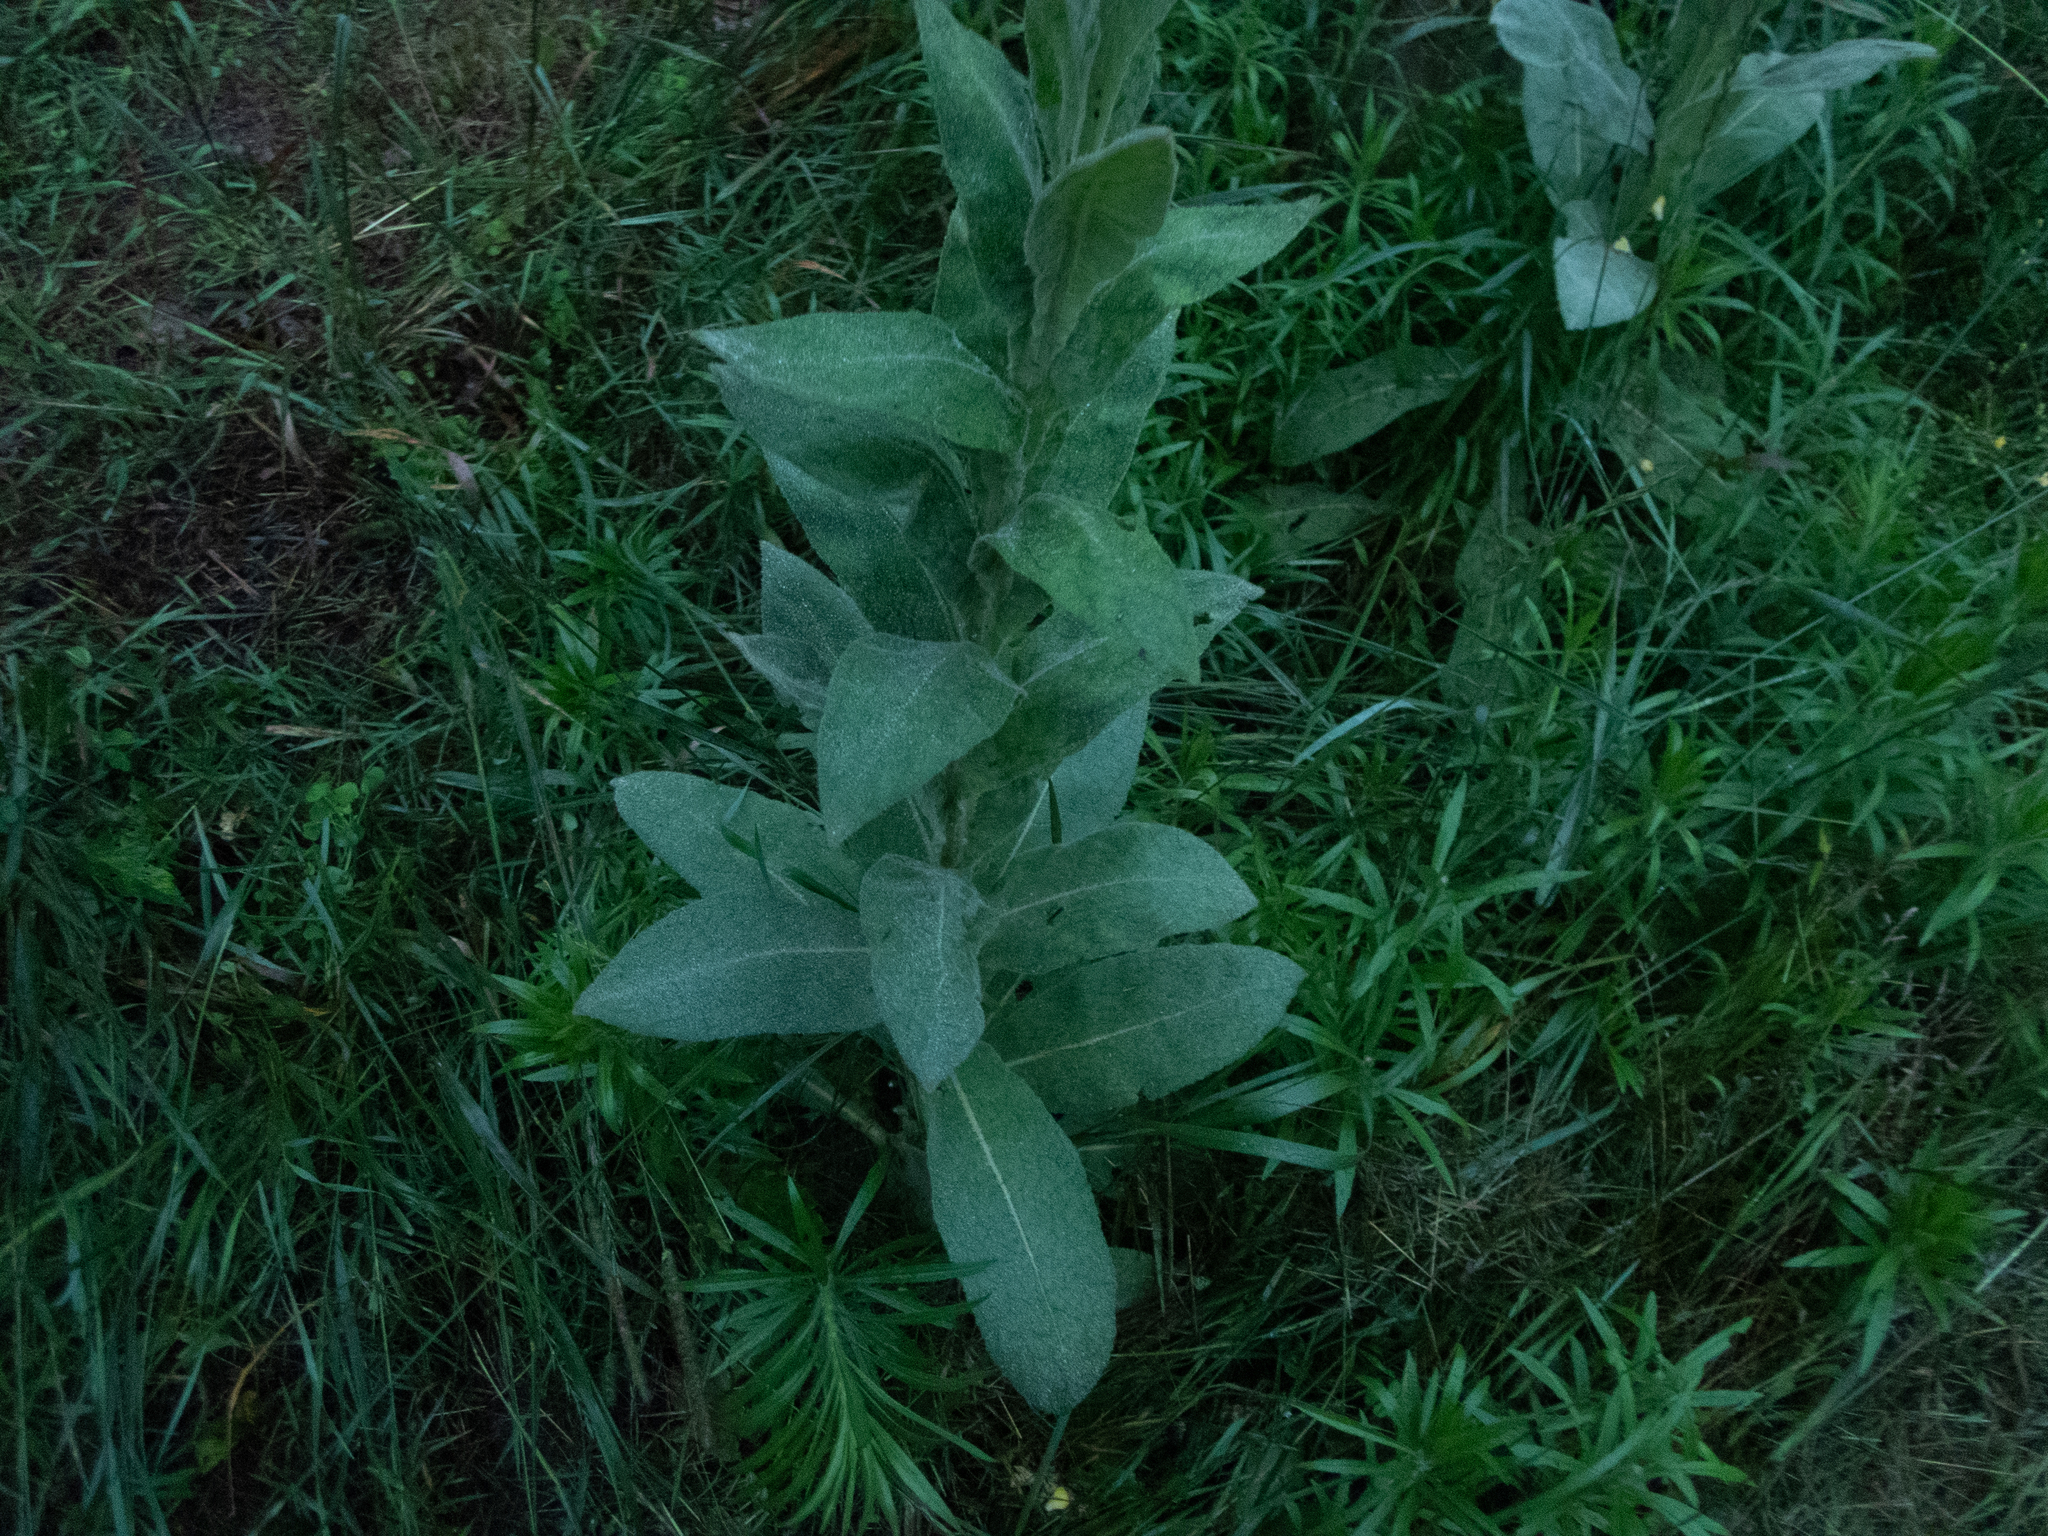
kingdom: Plantae
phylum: Tracheophyta
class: Magnoliopsida
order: Lamiales
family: Scrophulariaceae
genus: Verbascum
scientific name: Verbascum thapsus
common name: Common mullein
